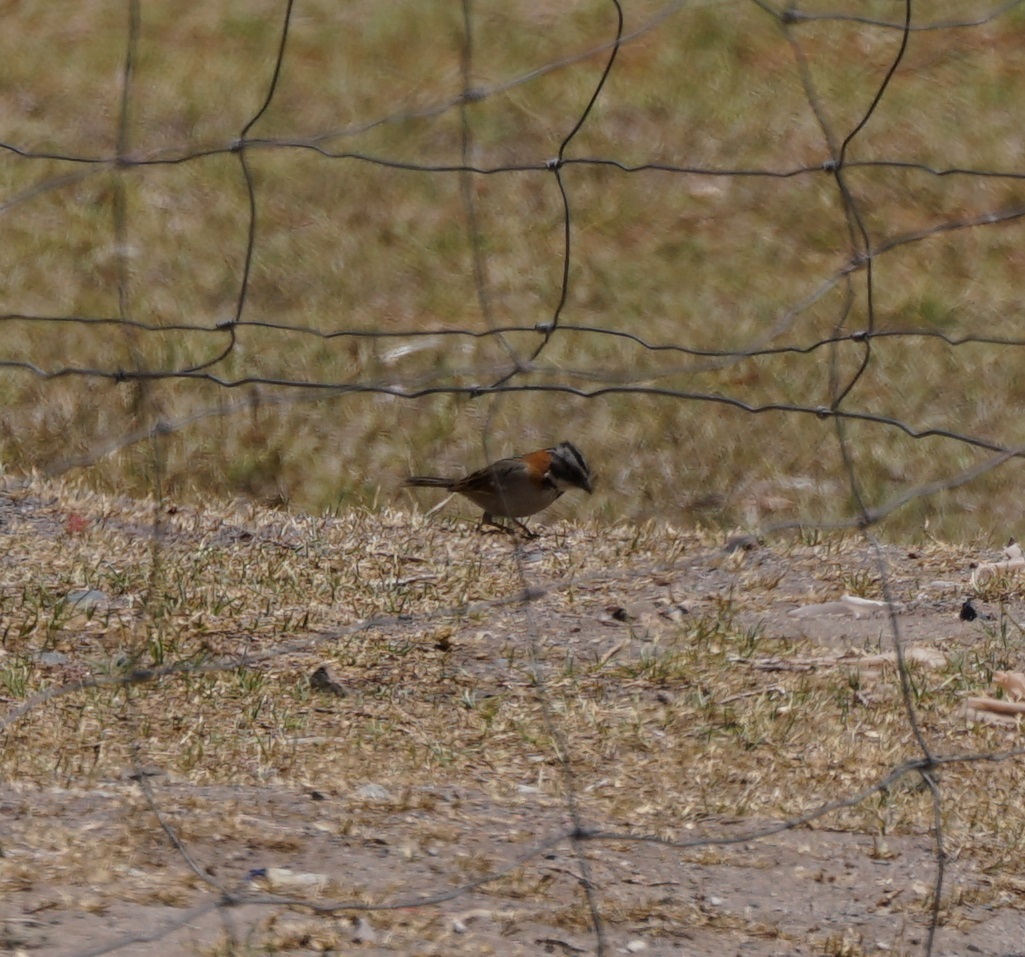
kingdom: Animalia
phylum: Chordata
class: Aves
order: Passeriformes
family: Passerellidae
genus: Zonotrichia
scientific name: Zonotrichia capensis
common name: Rufous-collared sparrow
